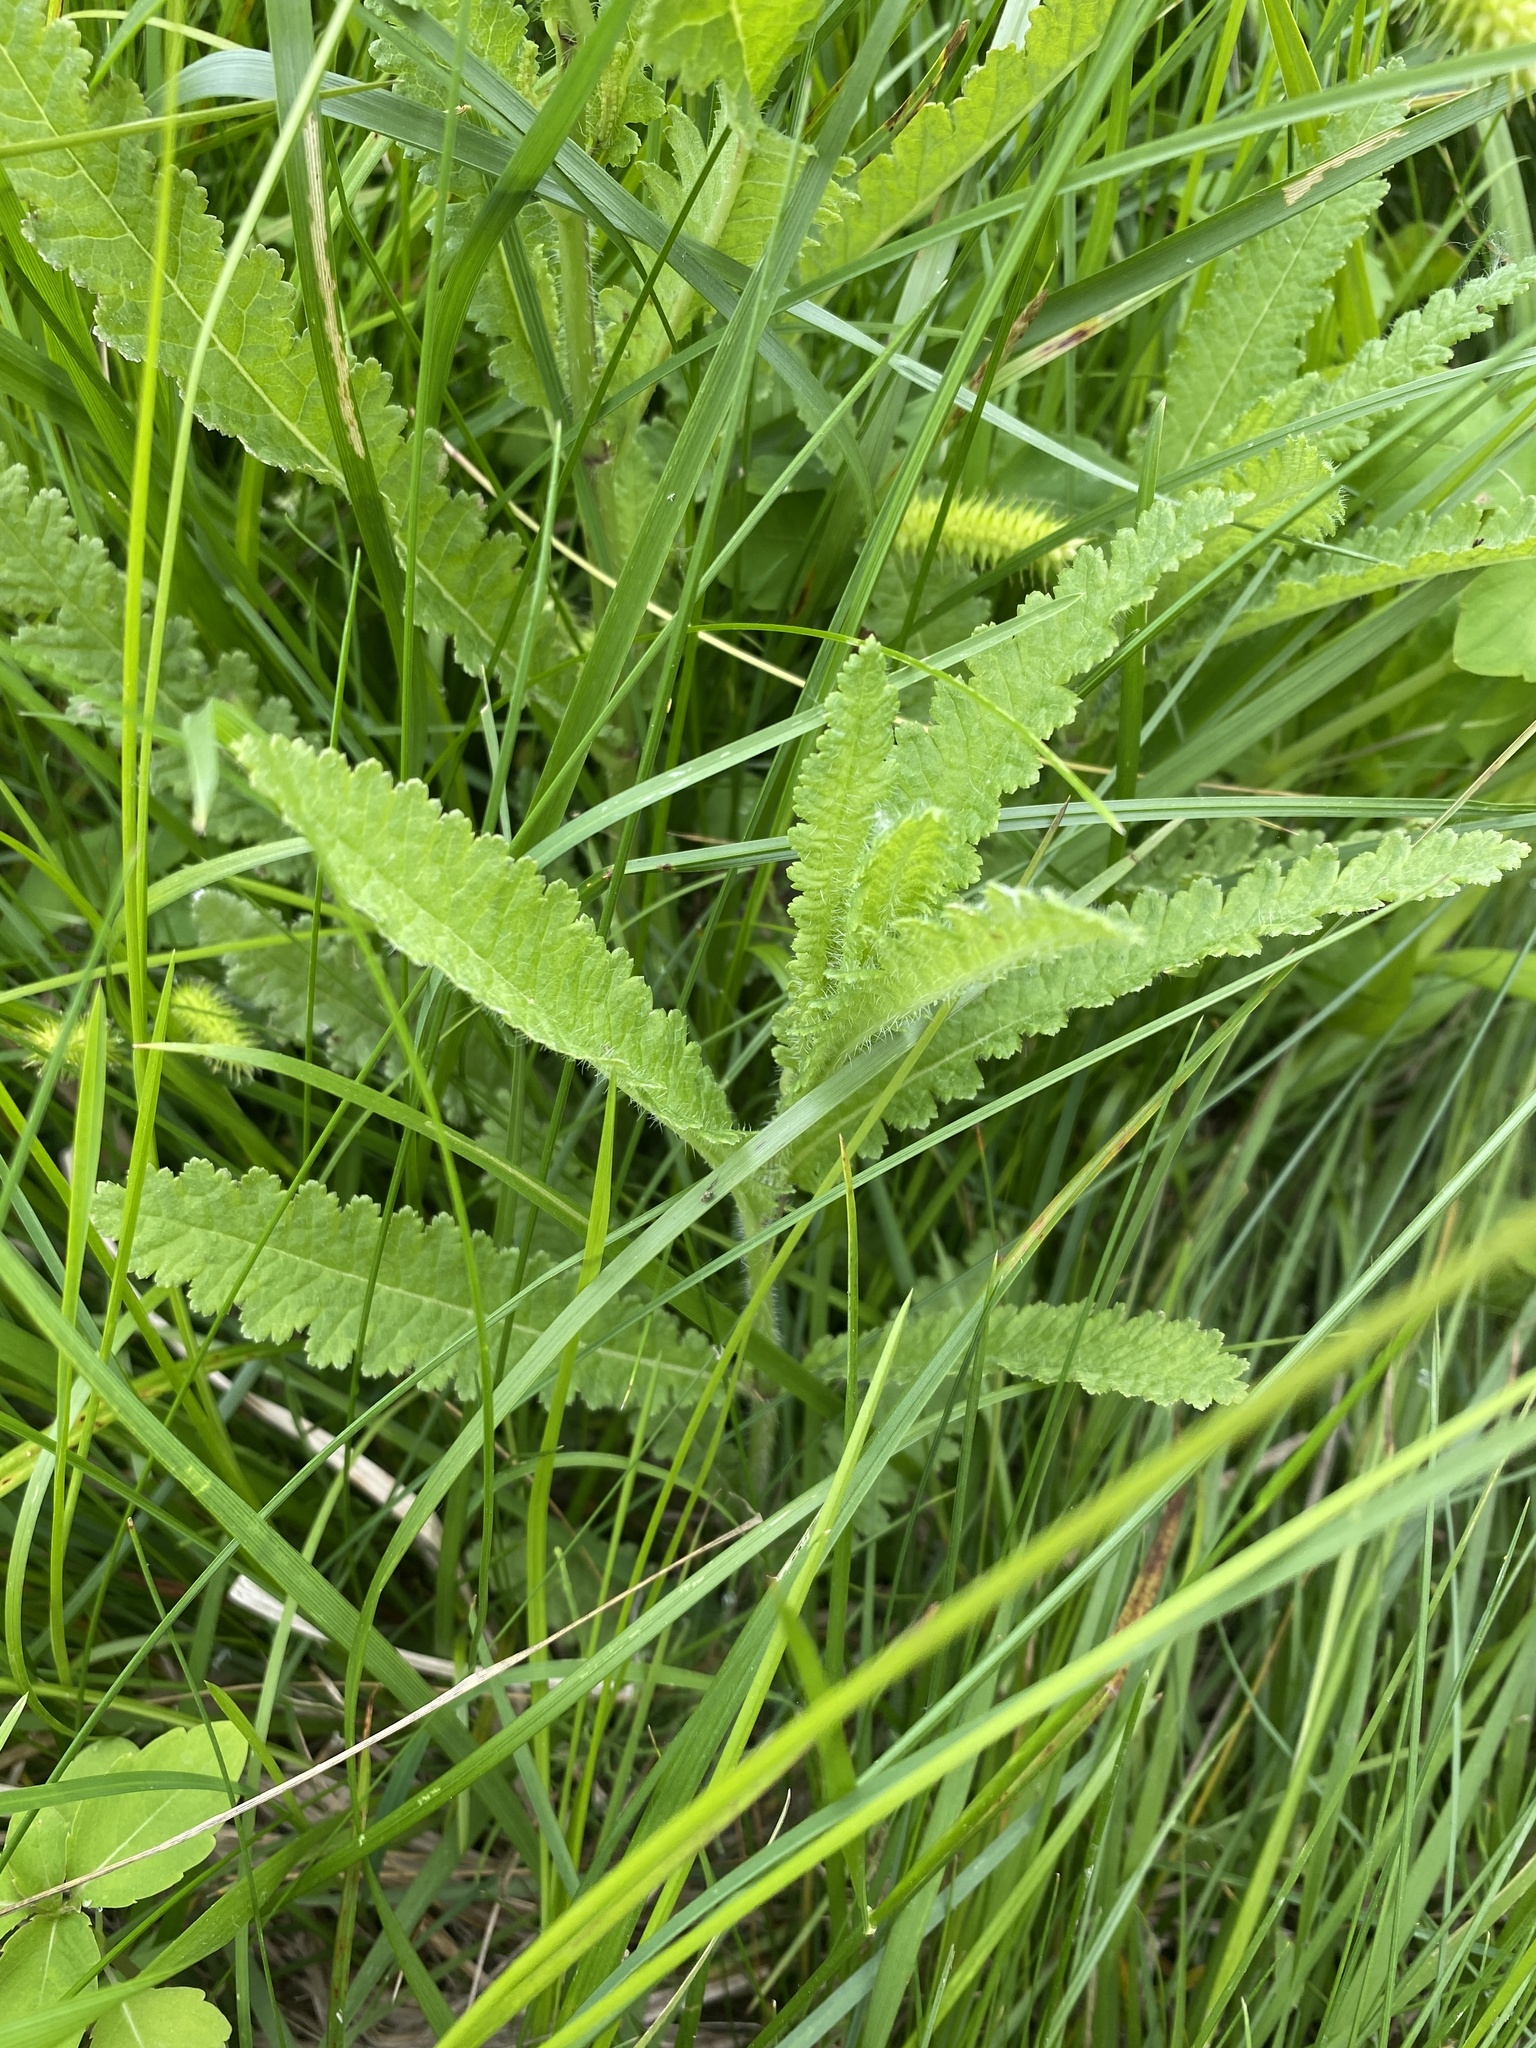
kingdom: Plantae
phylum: Tracheophyta
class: Magnoliopsida
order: Lamiales
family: Orobanchaceae
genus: Pedicularis
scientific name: Pedicularis lanceolata
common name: Swamp lousewort
